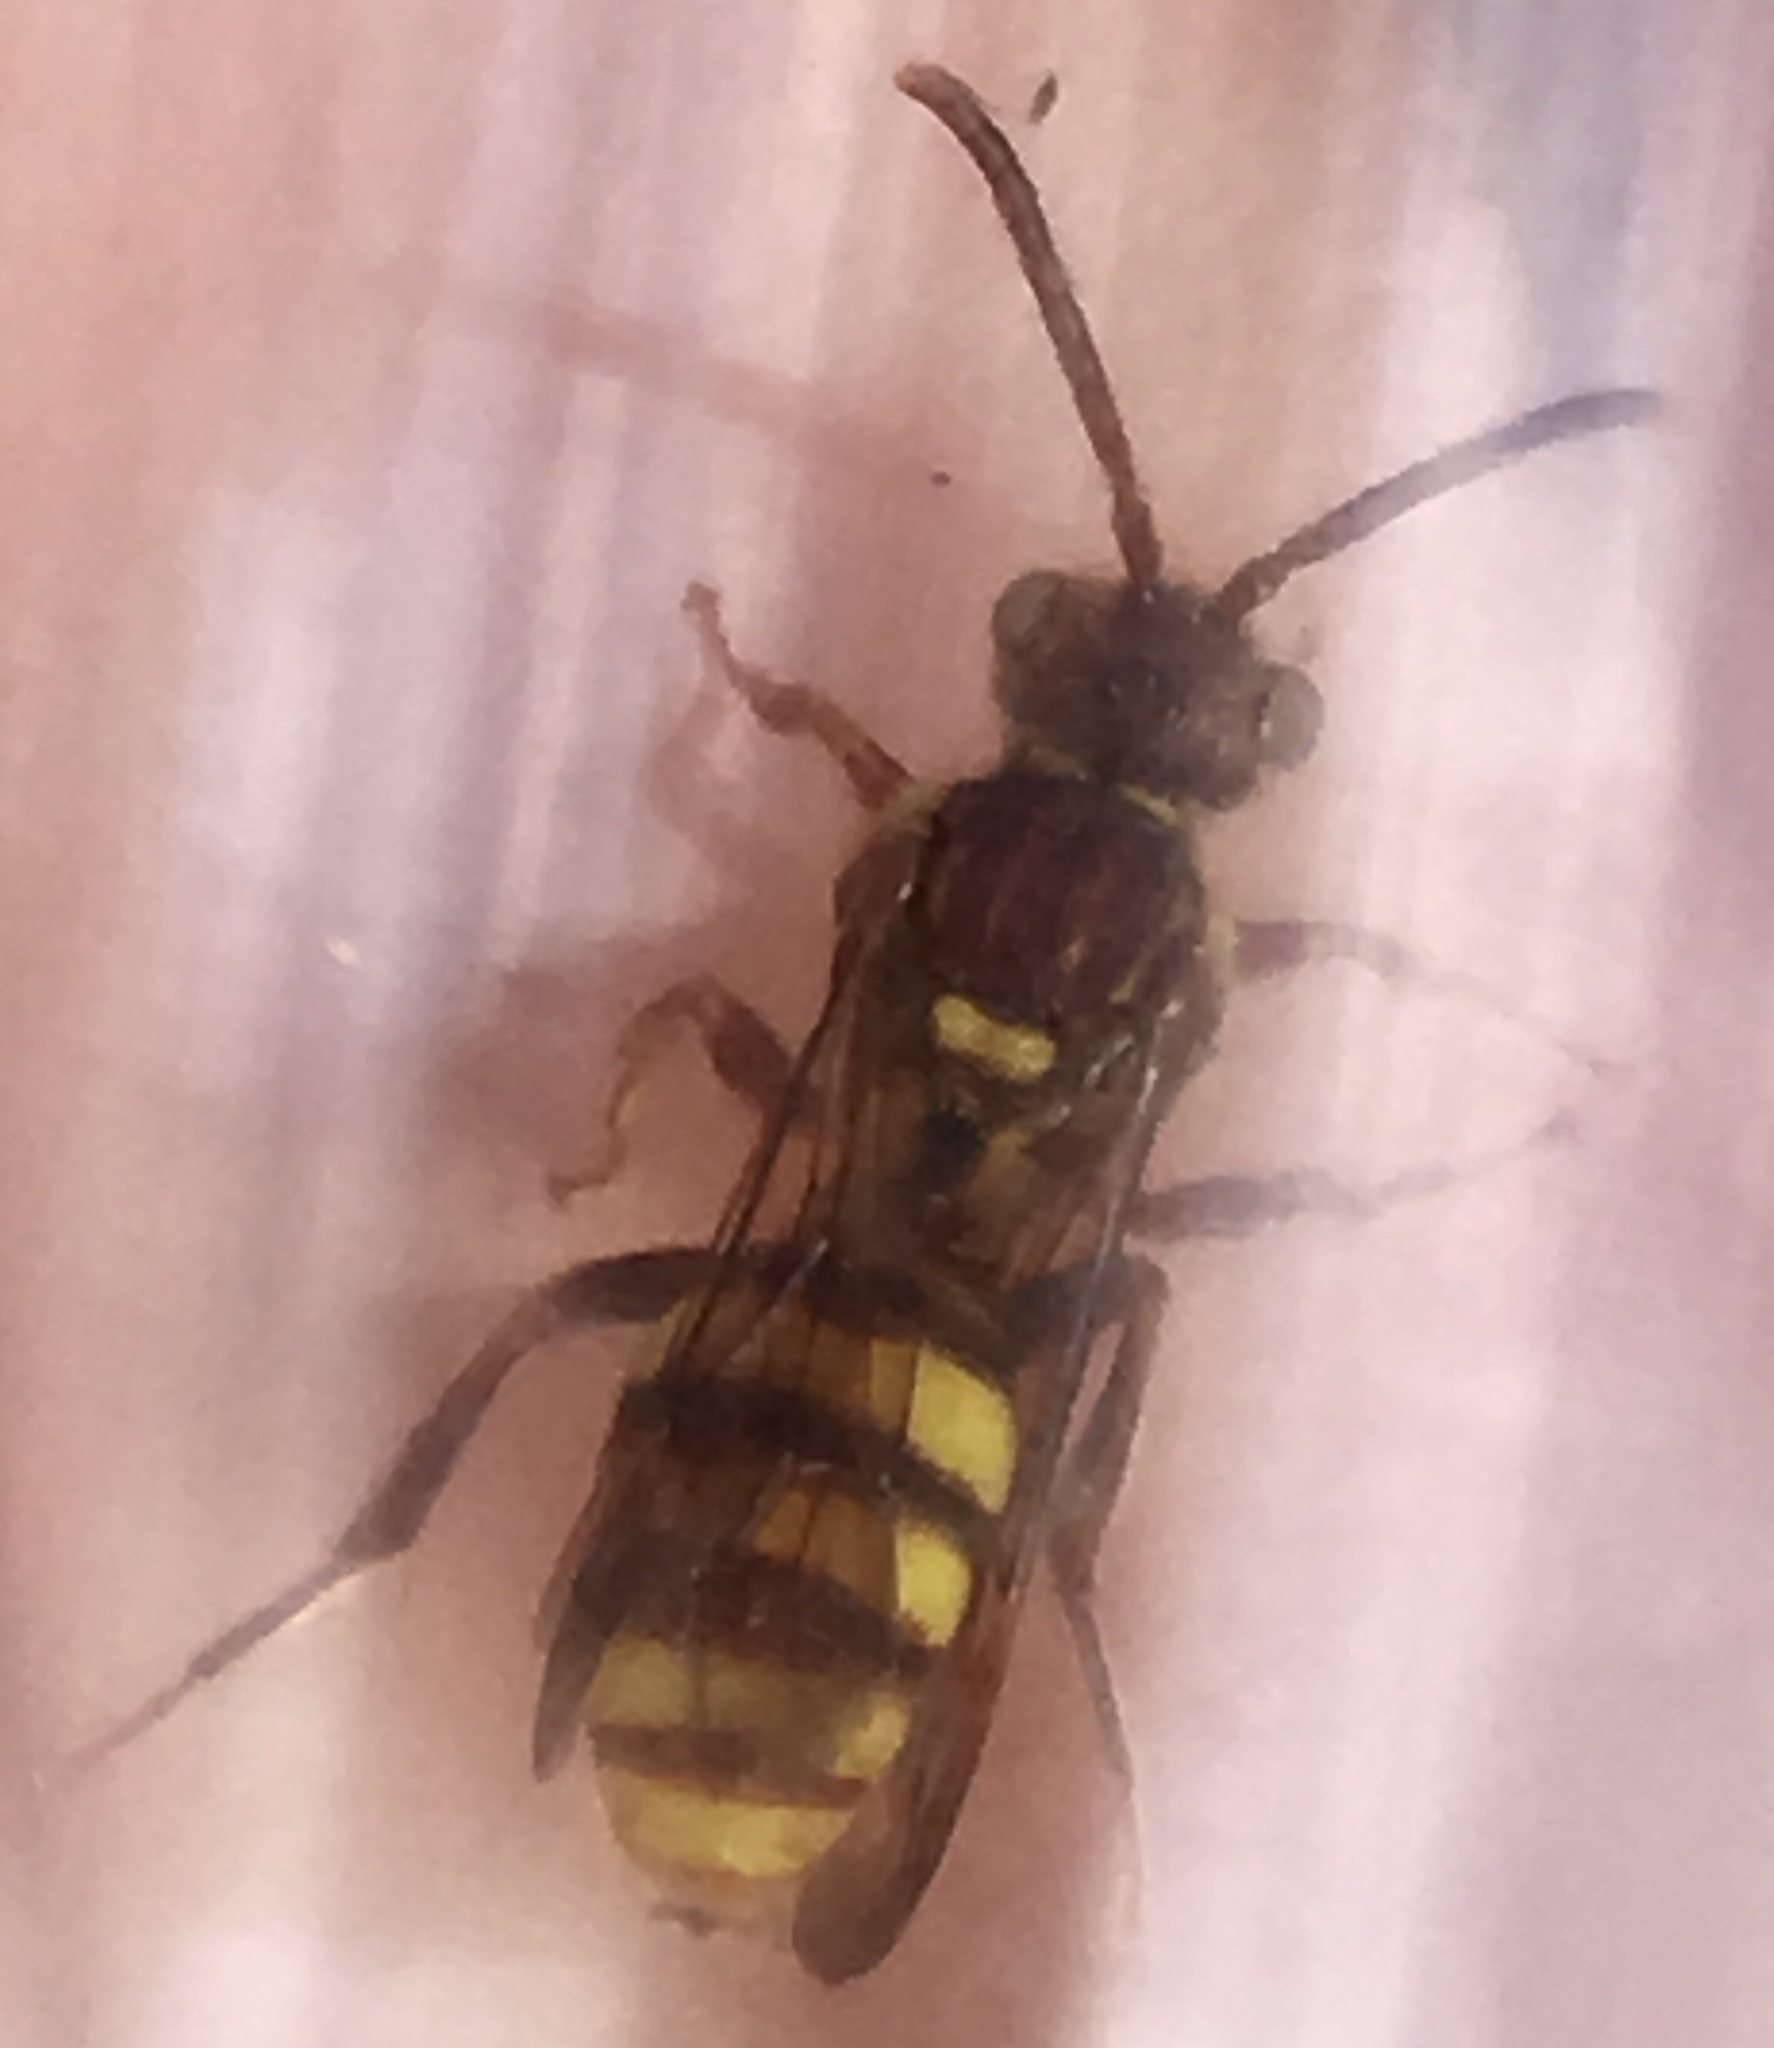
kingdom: Animalia
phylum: Arthropoda
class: Insecta
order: Hymenoptera
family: Apidae
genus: Nomada
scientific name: Nomada imbricata
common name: Imbricate cuckoo nomad bee
